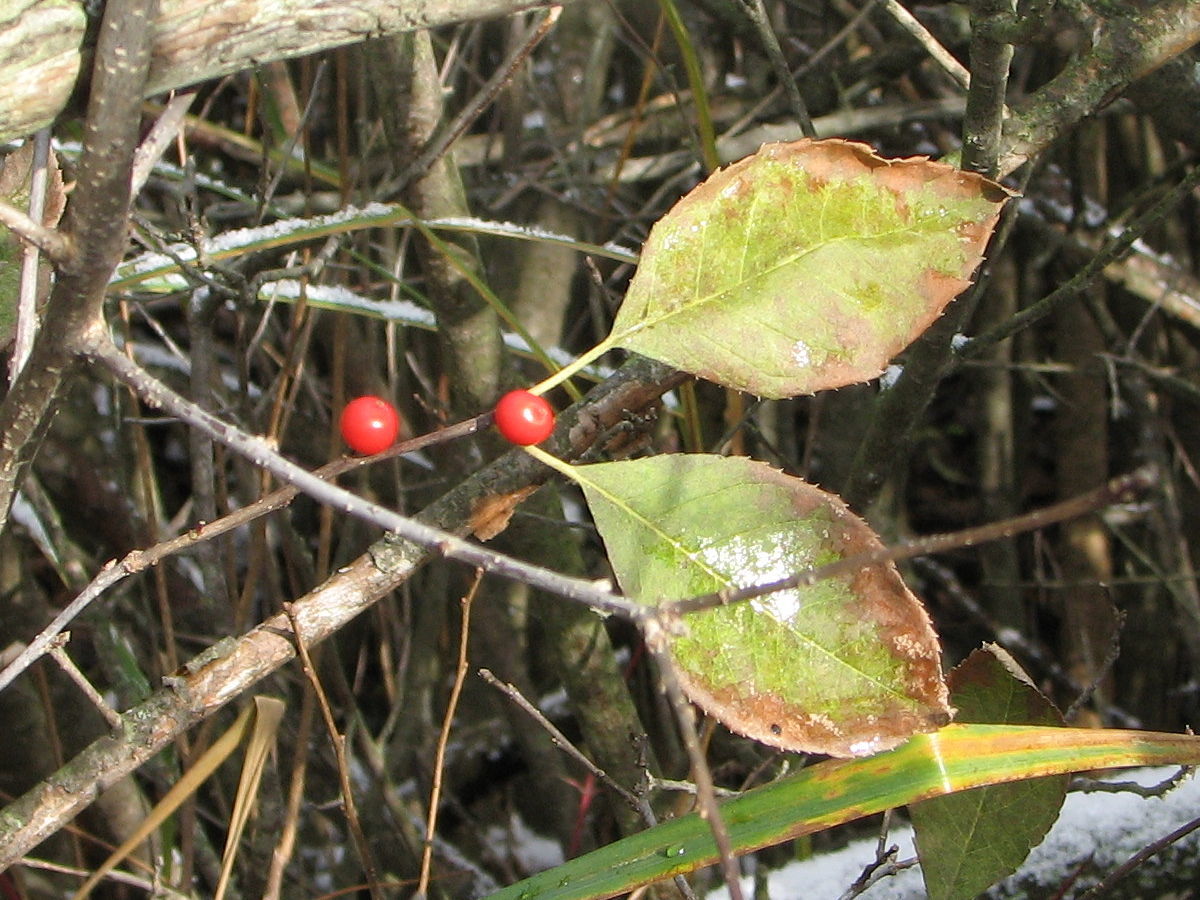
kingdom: Plantae
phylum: Tracheophyta
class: Magnoliopsida
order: Aquifoliales
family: Aquifoliaceae
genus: Ilex
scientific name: Ilex verticillata
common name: Virginia winterberry
